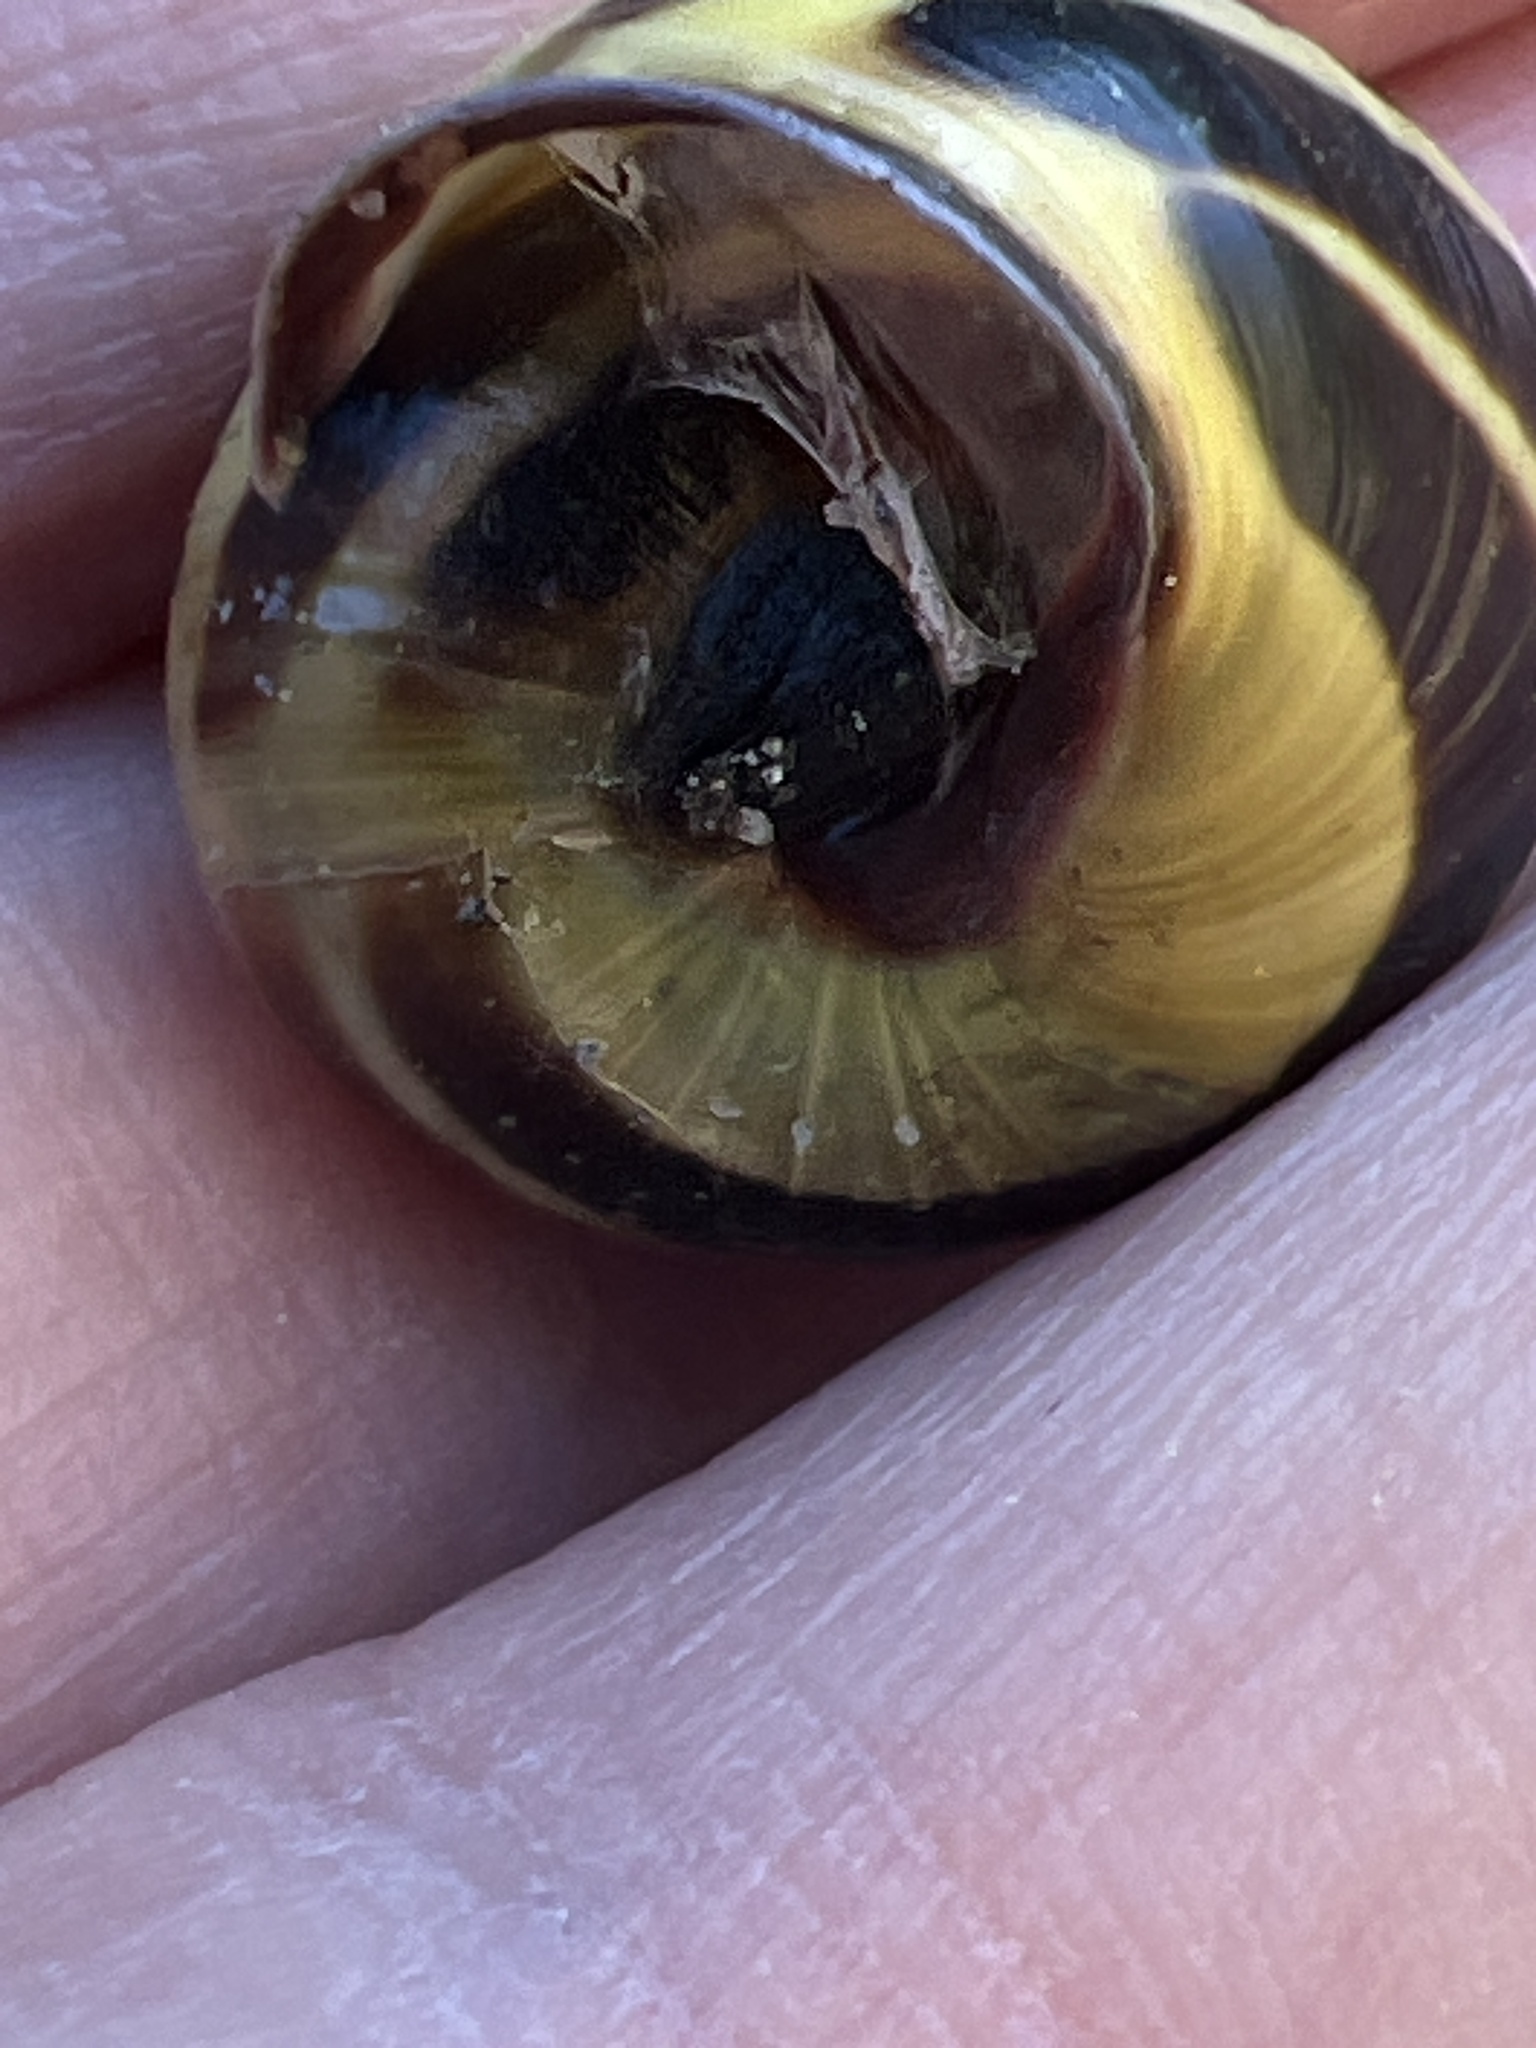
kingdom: Animalia
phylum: Mollusca
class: Gastropoda
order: Stylommatophora
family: Helicidae
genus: Cepaea
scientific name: Cepaea nemoralis
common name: Grovesnail
